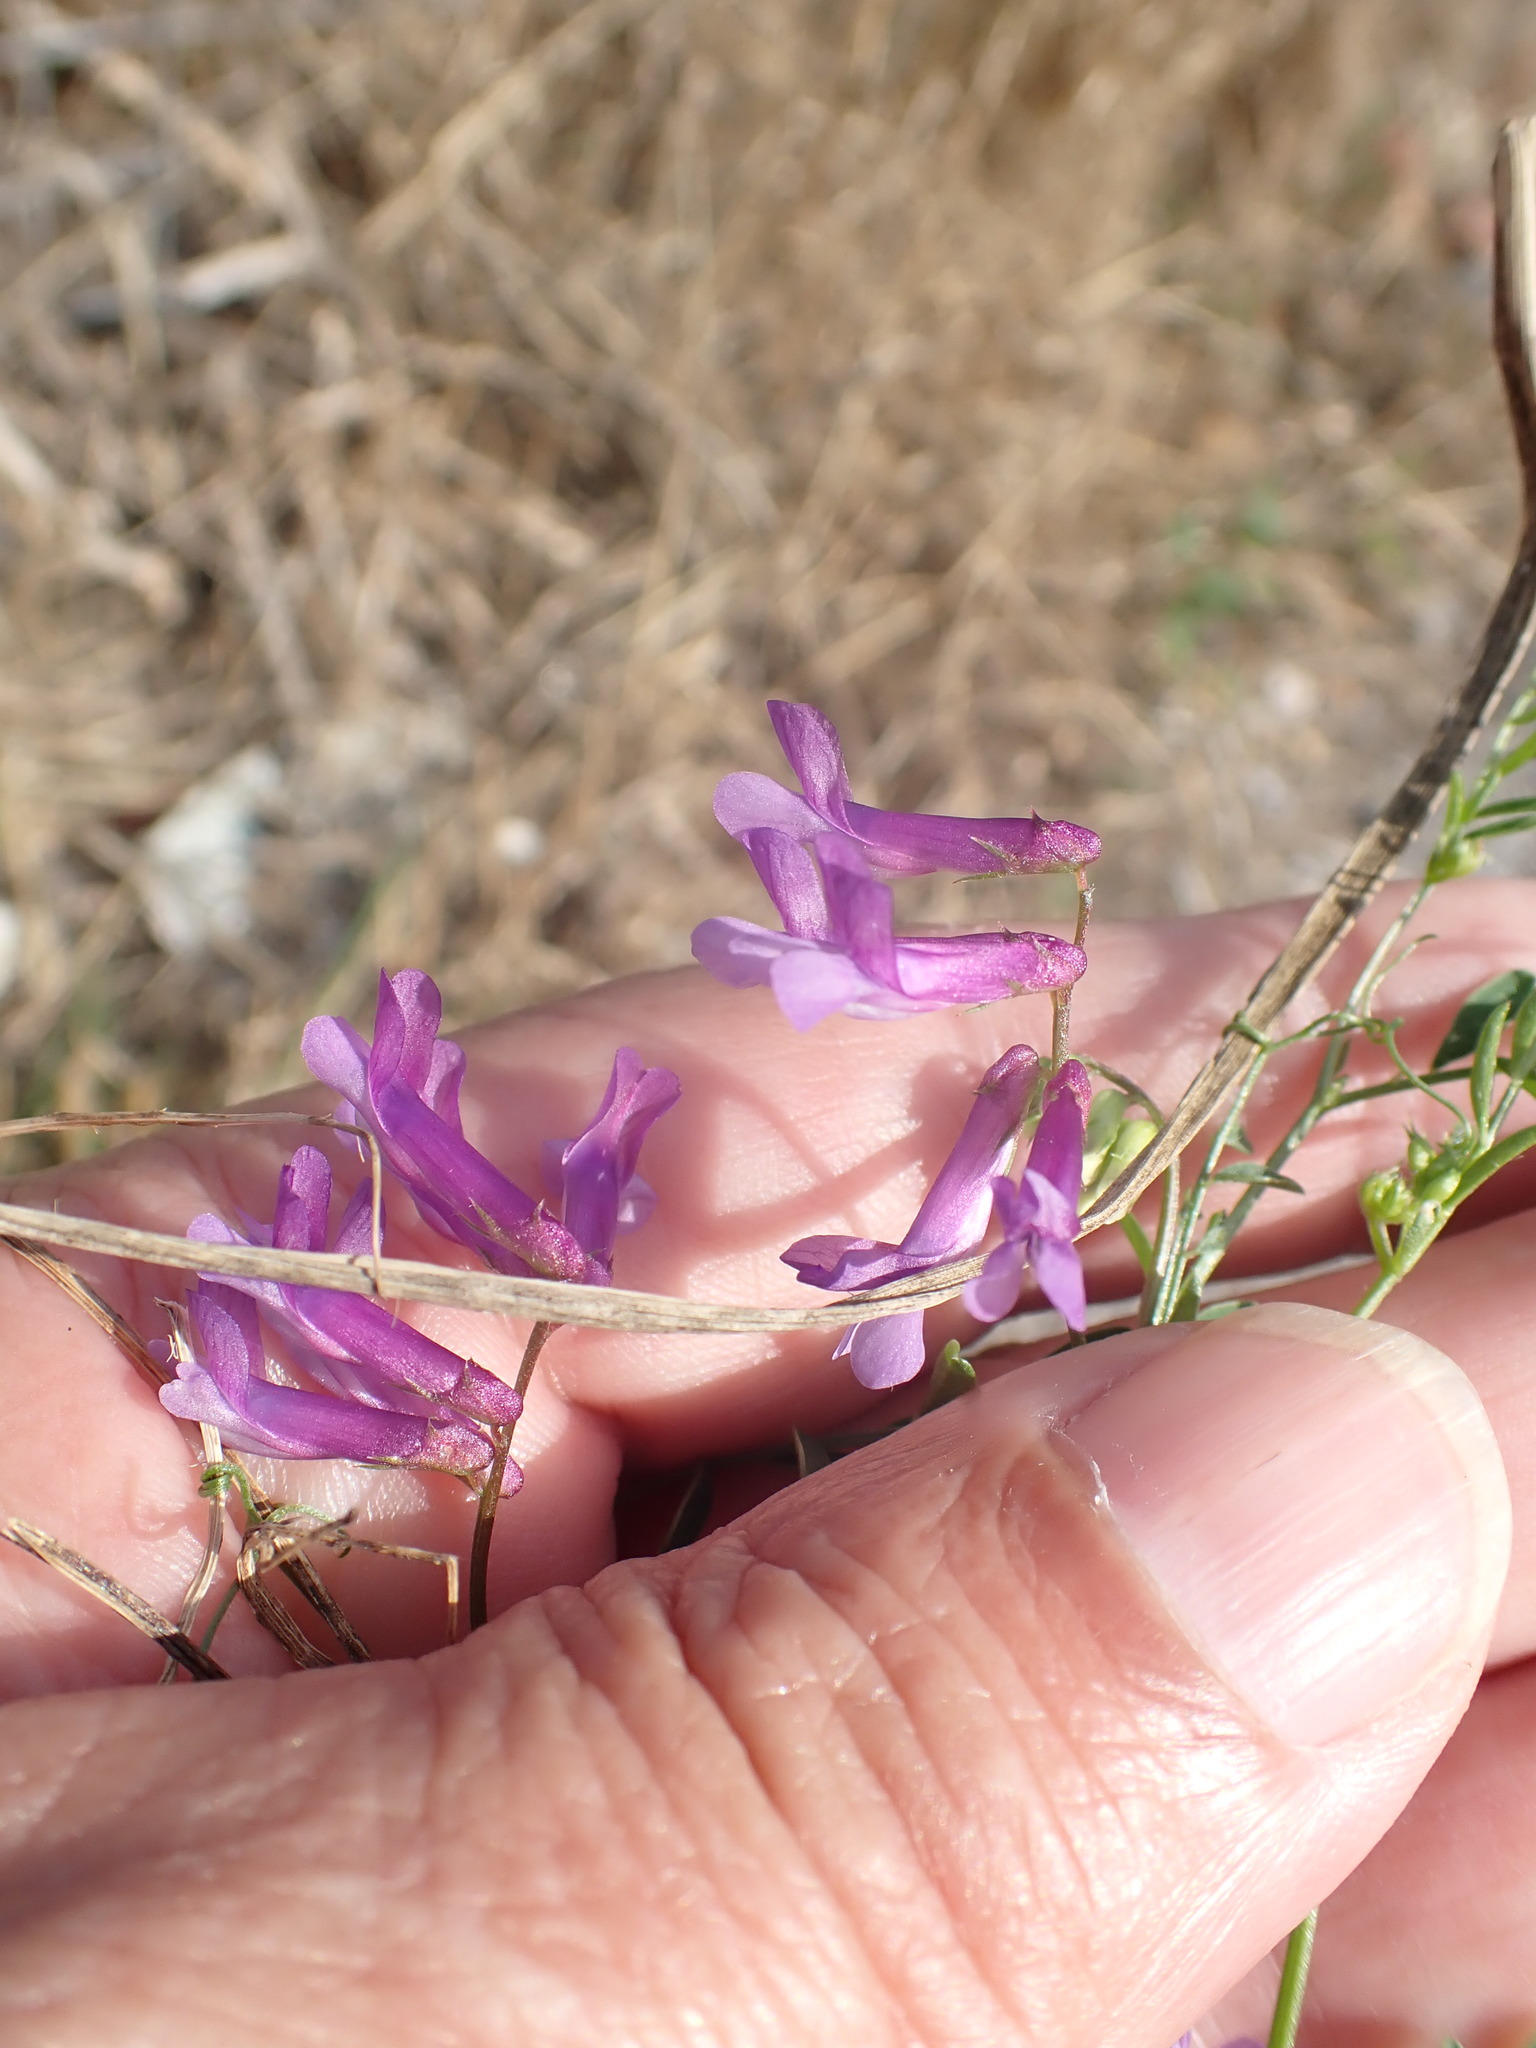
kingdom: Plantae
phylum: Tracheophyta
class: Magnoliopsida
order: Fabales
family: Fabaceae
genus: Vicia
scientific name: Vicia cracca
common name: Bird vetch
